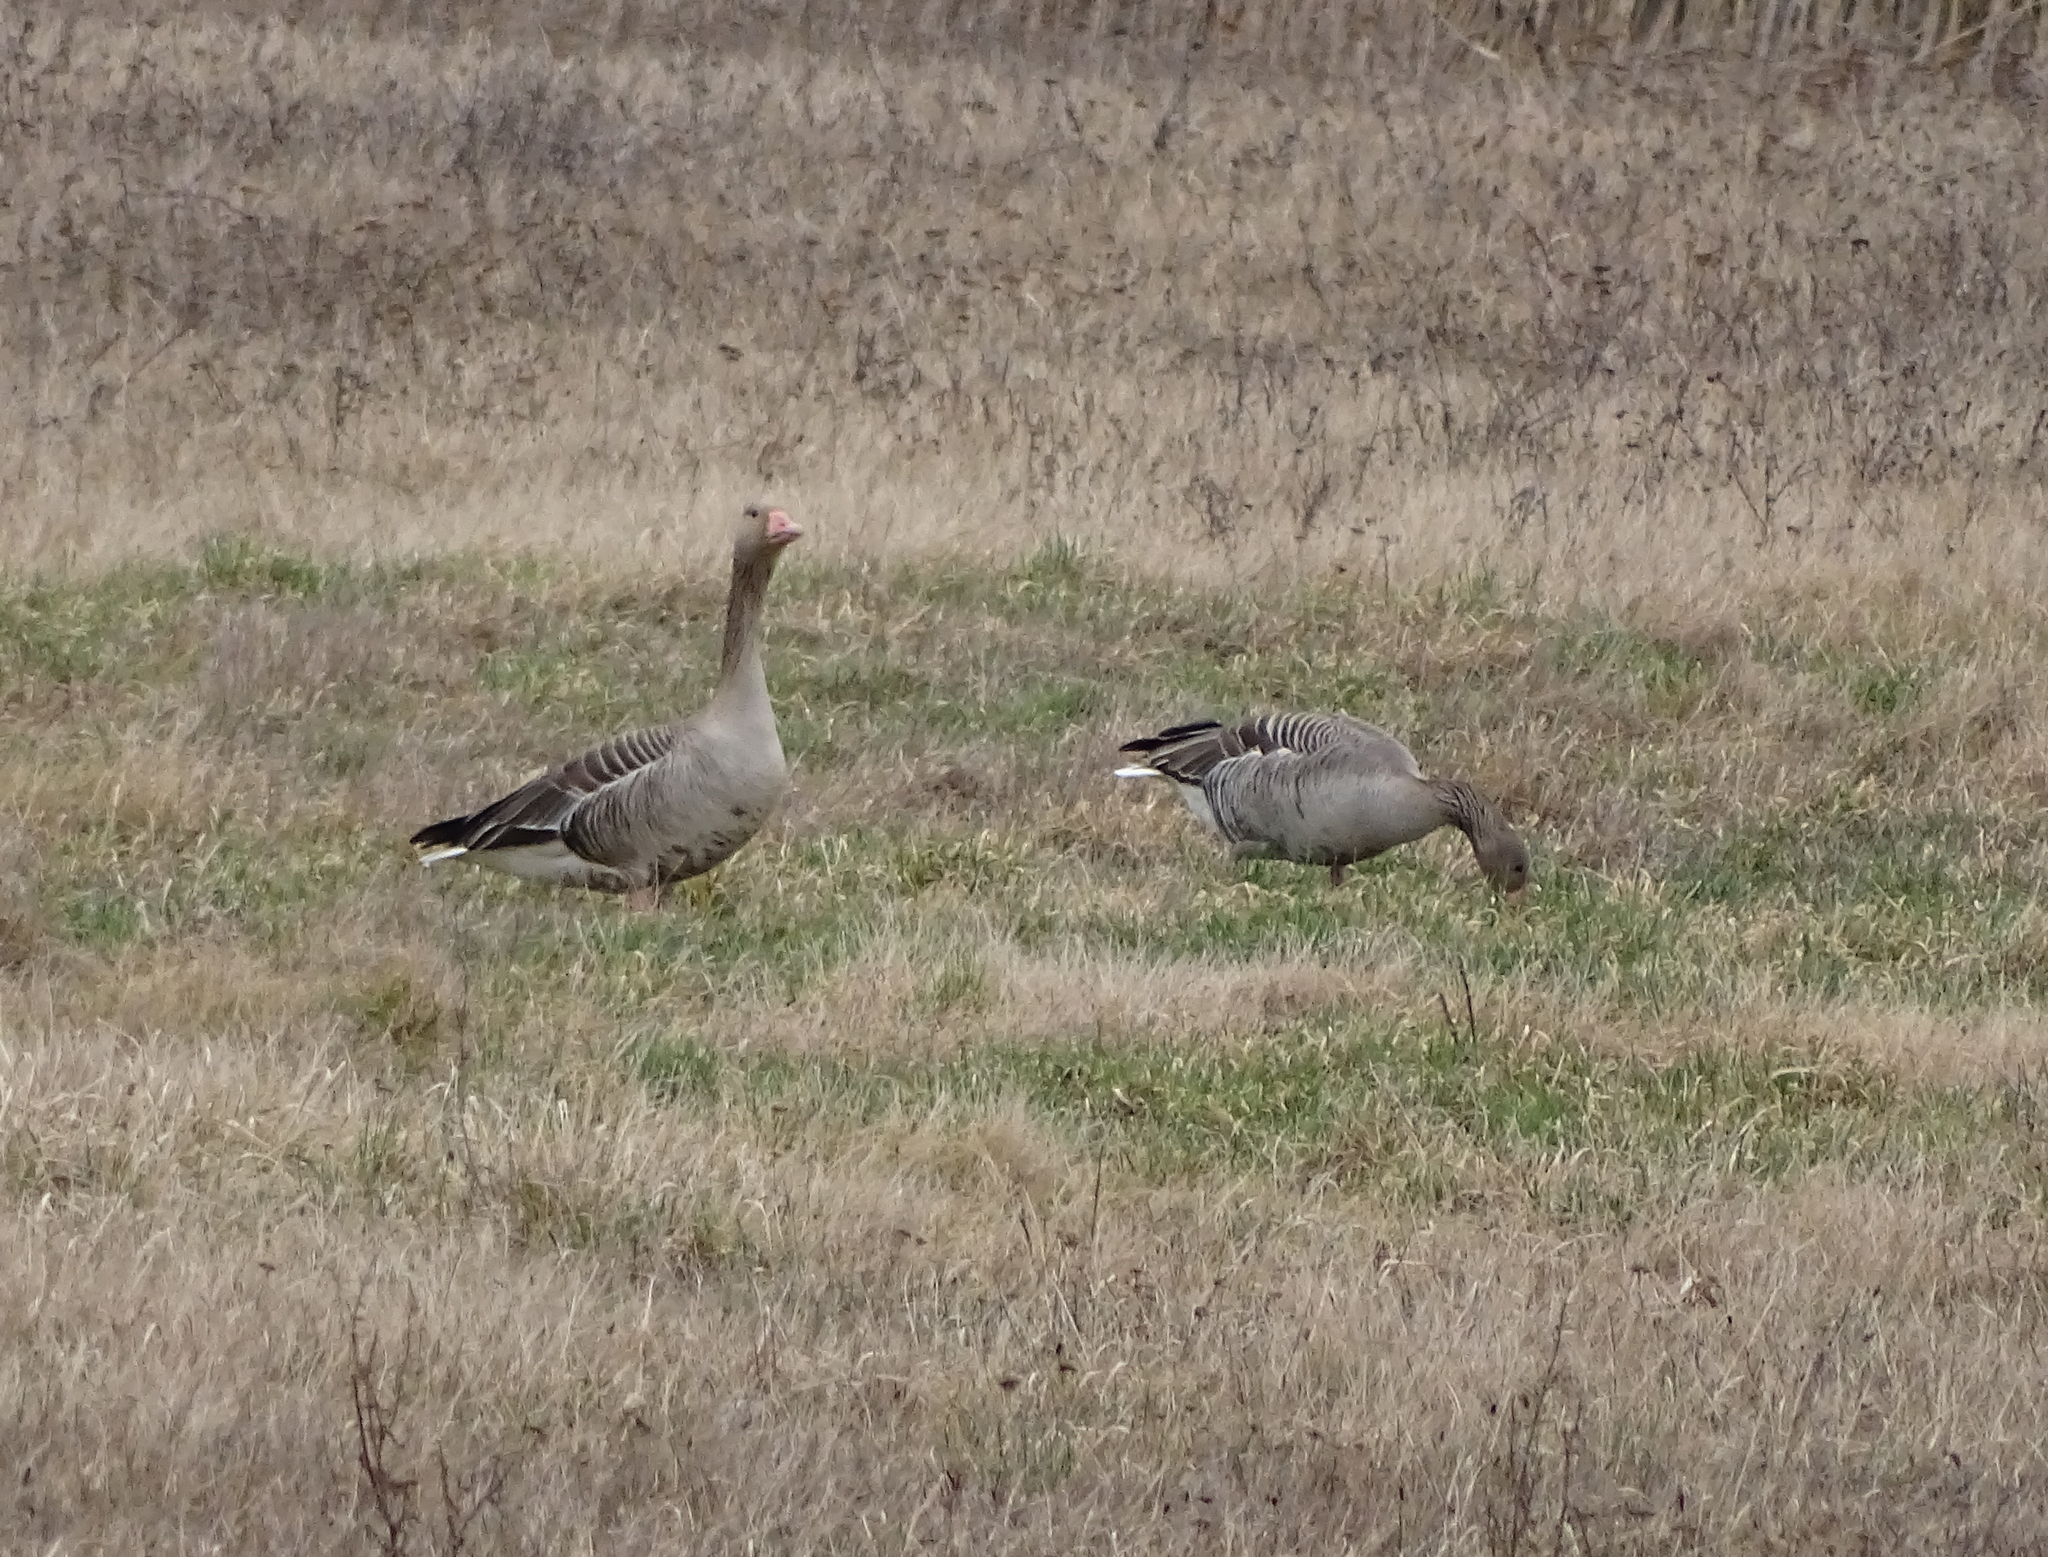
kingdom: Animalia
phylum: Chordata
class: Aves
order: Anseriformes
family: Anatidae
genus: Anser
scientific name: Anser anser
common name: Greylag goose
